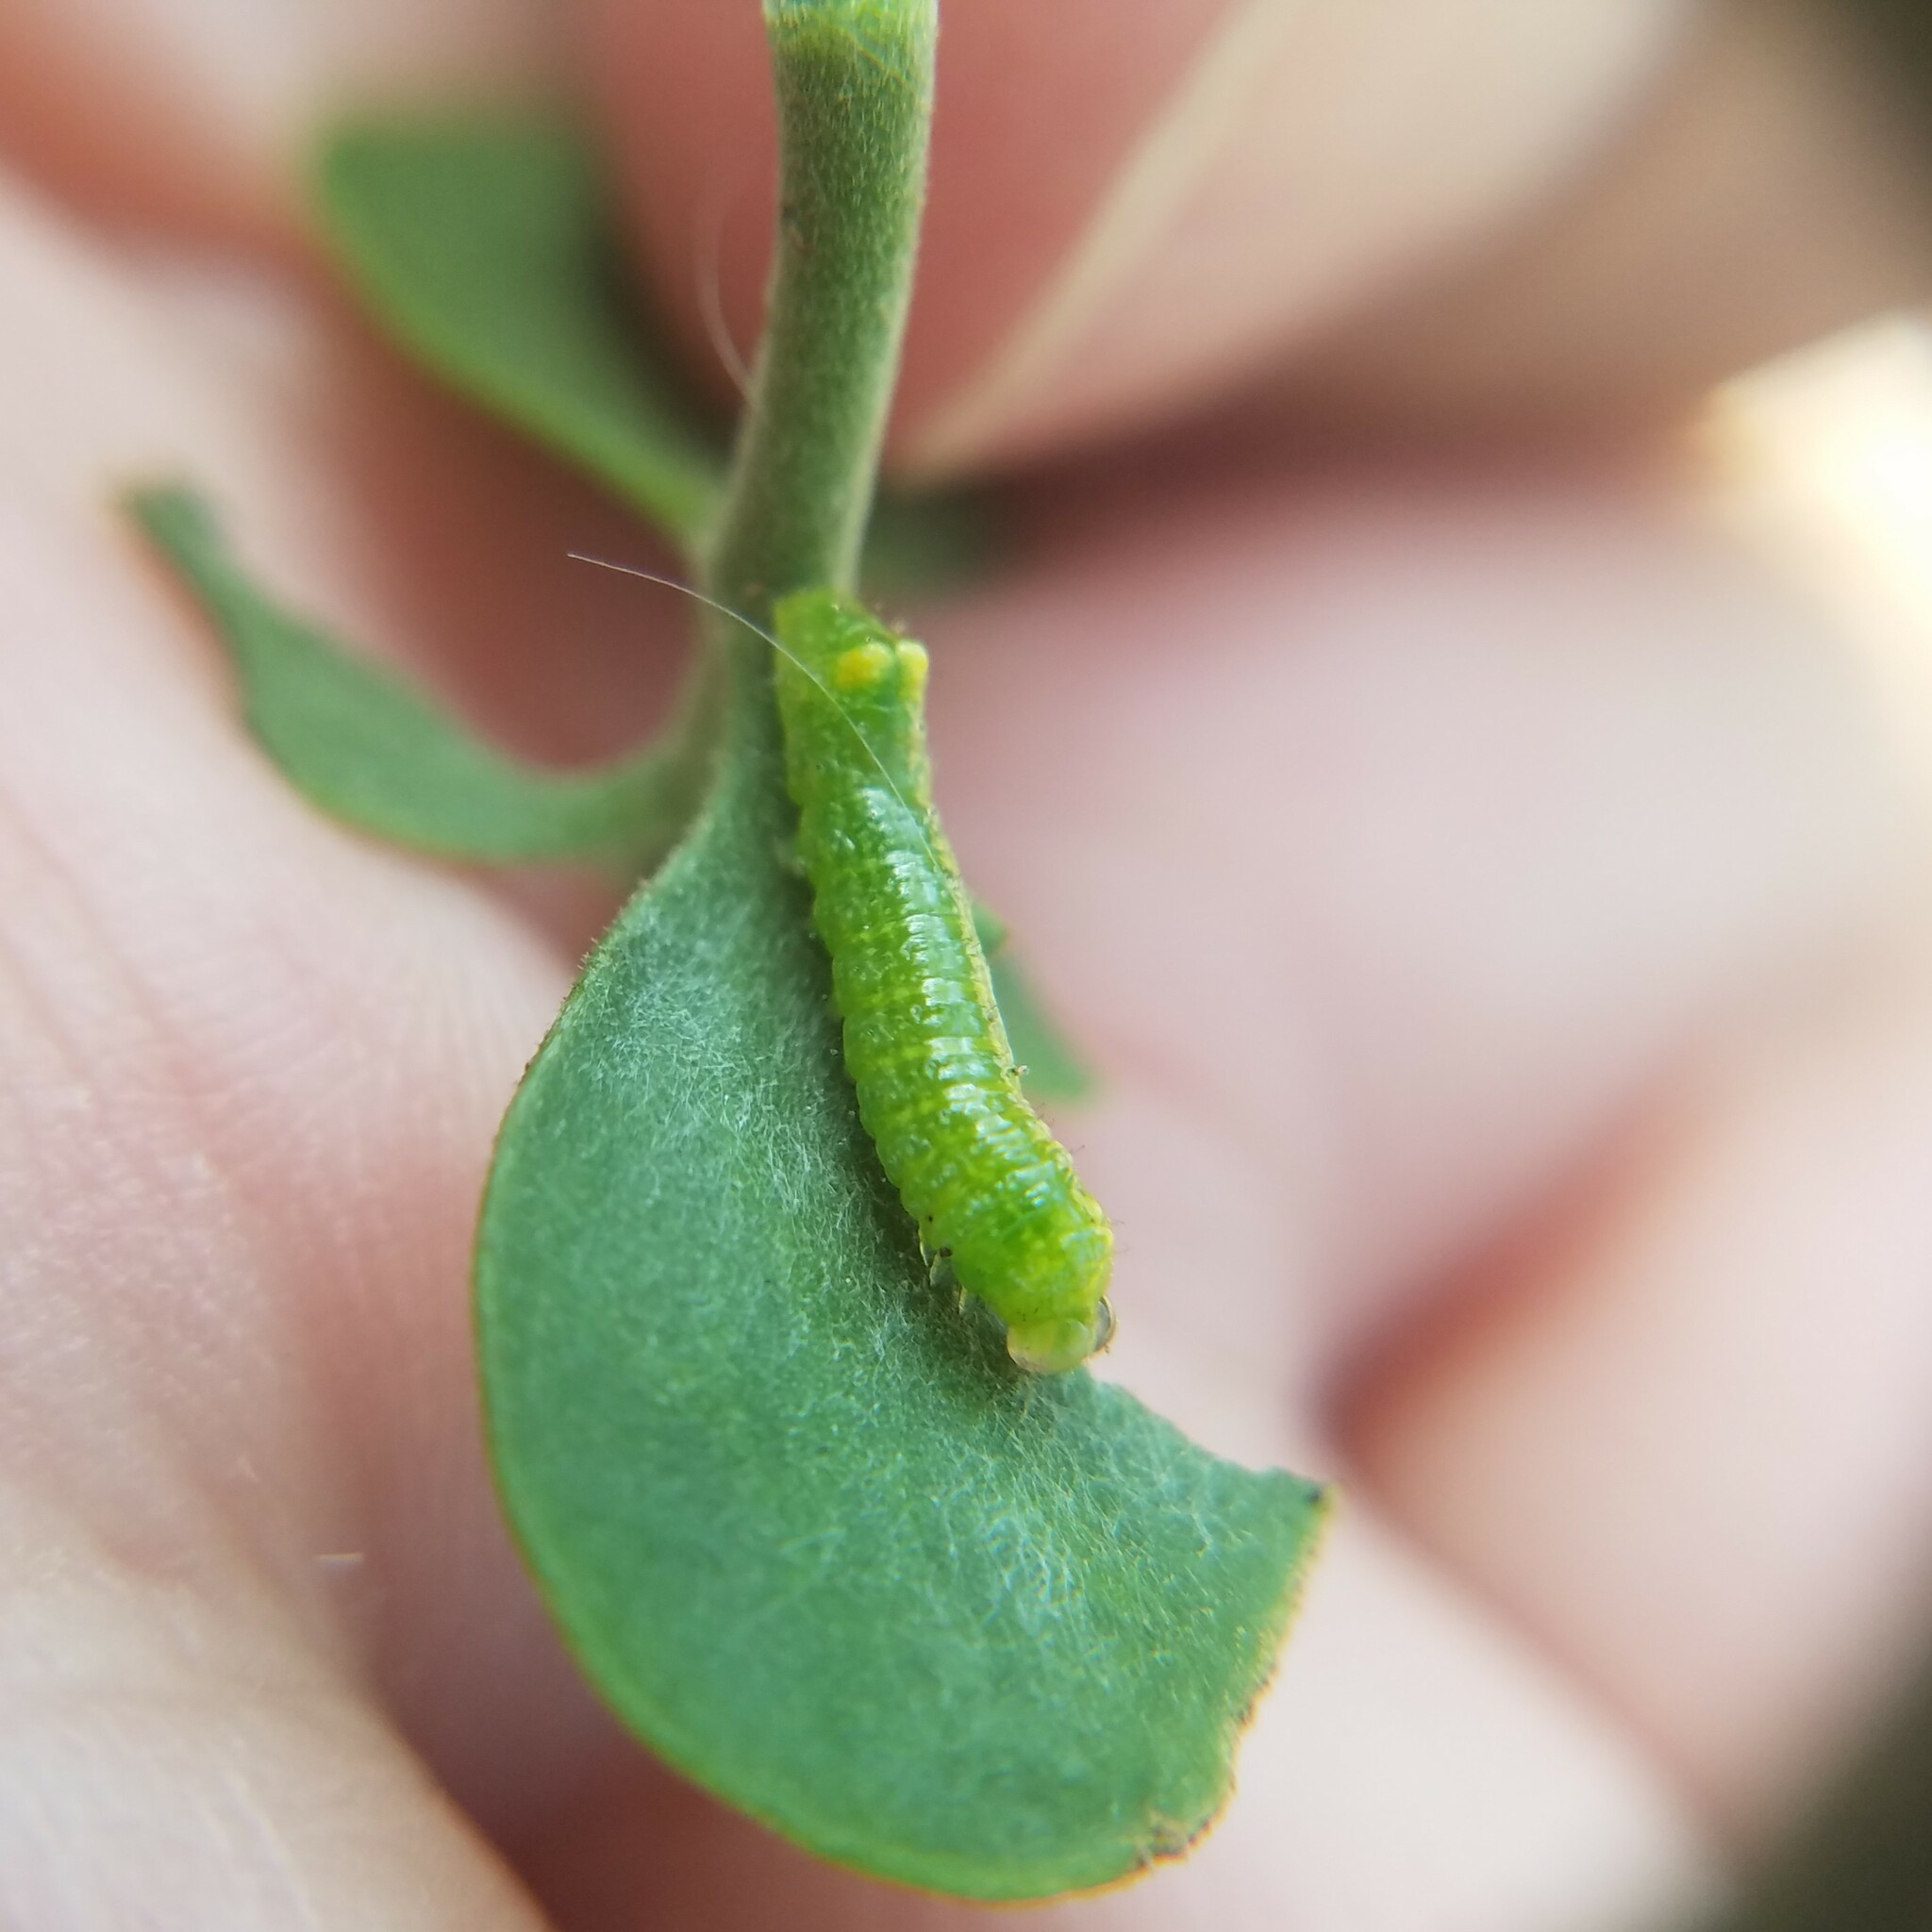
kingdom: Animalia
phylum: Arthropoda
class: Insecta
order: Lepidoptera
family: Noctuidae
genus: Emarginea
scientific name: Emarginea percara
